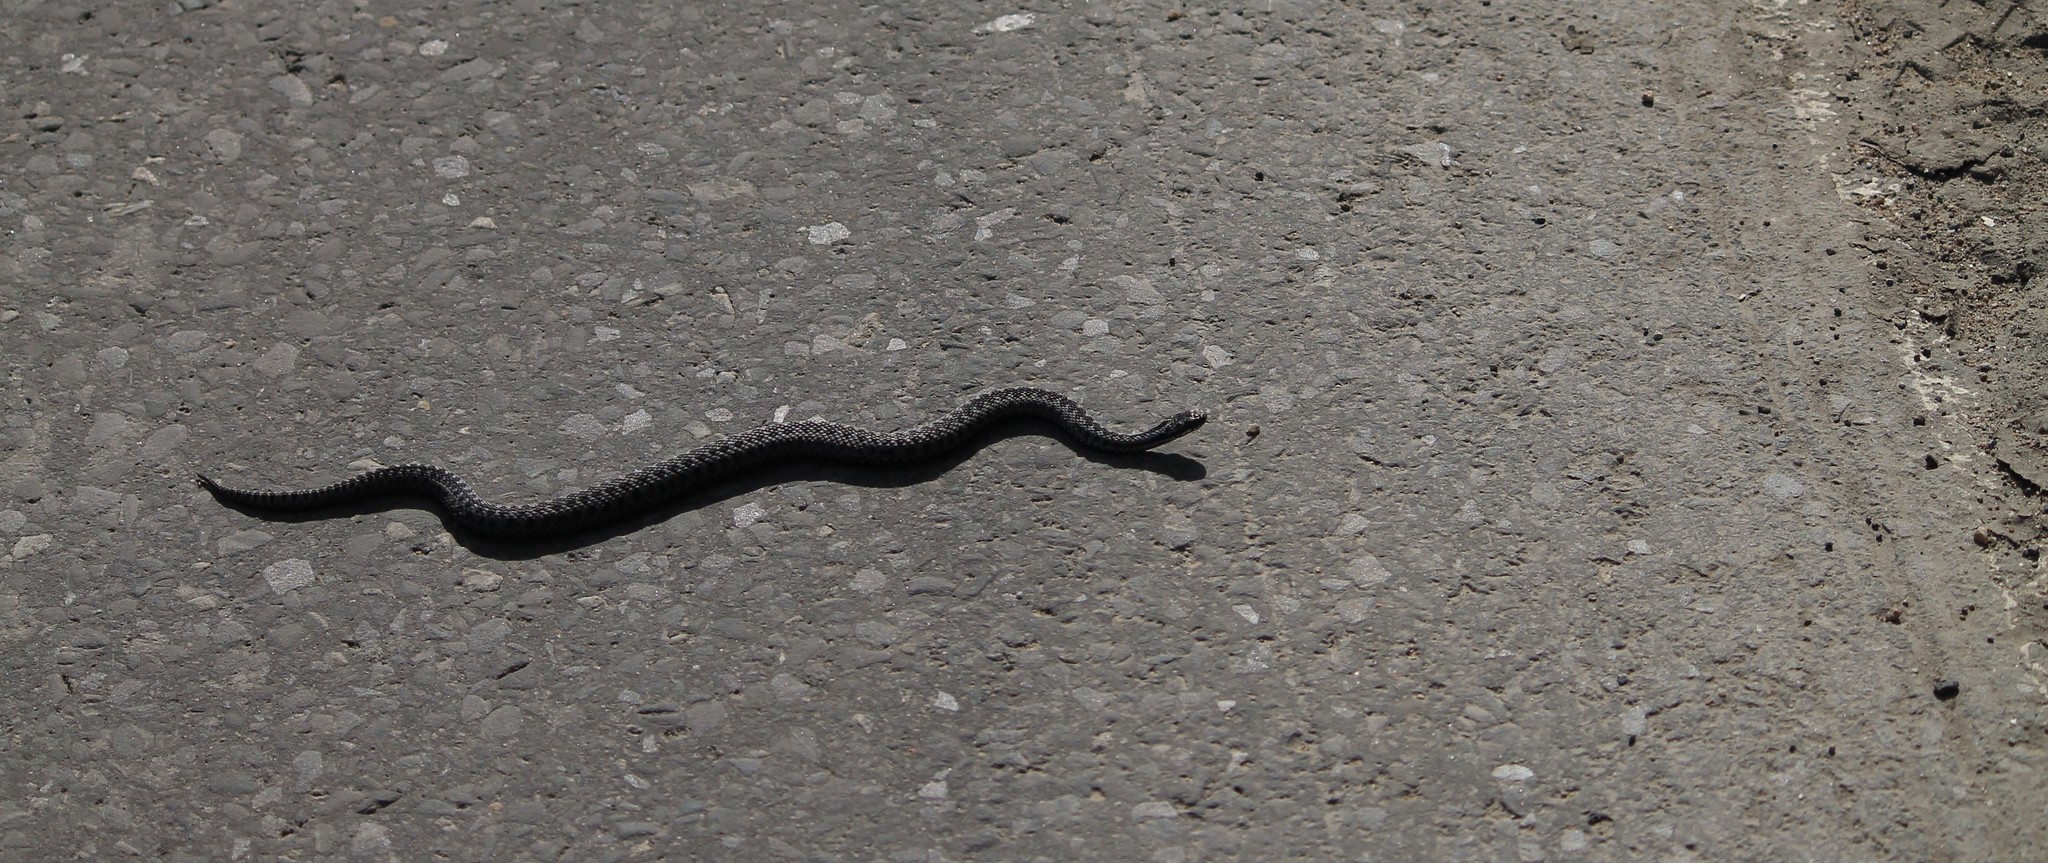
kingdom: Animalia
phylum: Chordata
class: Squamata
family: Viperidae
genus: Vipera
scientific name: Vipera berus
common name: Adder
